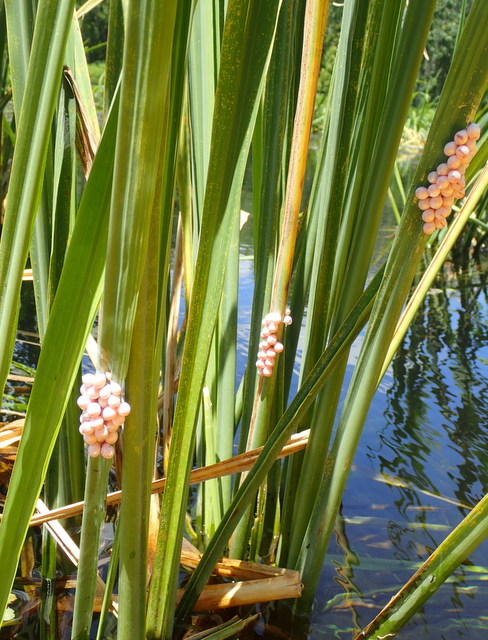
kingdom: Animalia
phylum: Mollusca
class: Gastropoda
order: Architaenioglossa
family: Ampullariidae
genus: Pomacea
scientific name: Pomacea paludosa
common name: Florida applesnail
